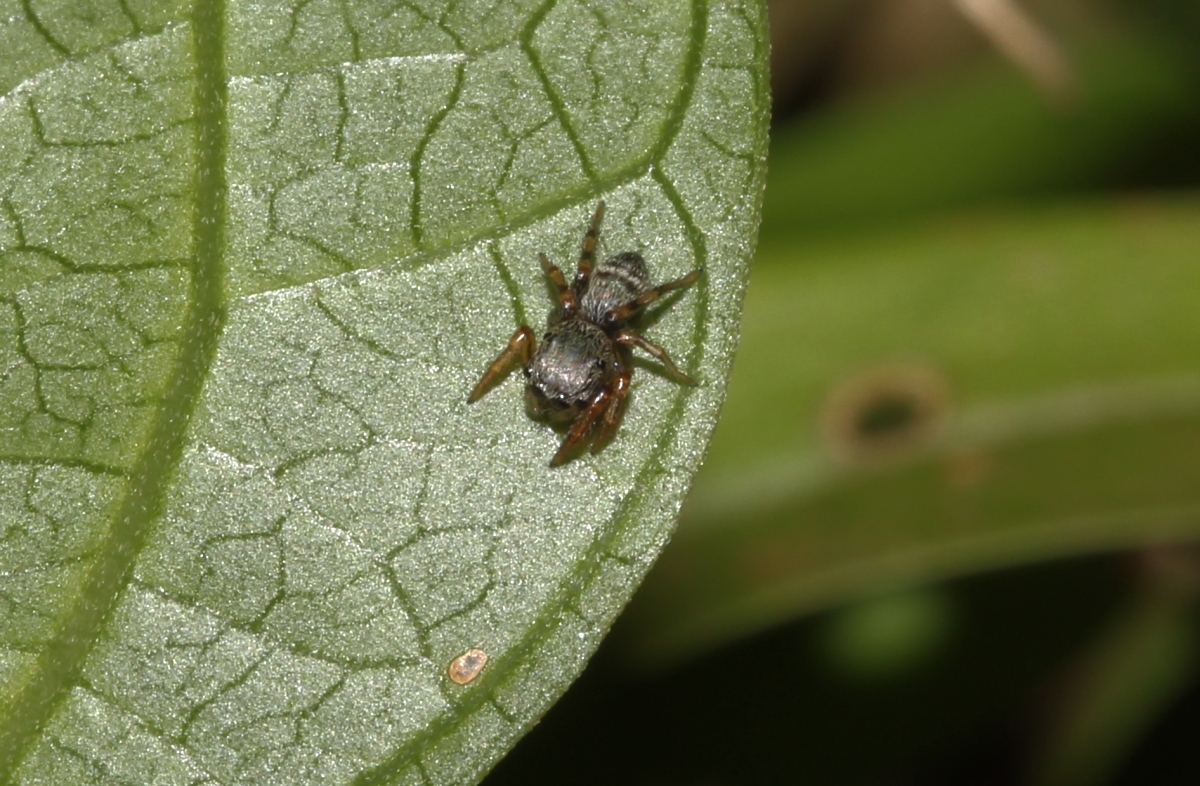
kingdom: Animalia
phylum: Arthropoda
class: Arachnida
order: Araneae
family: Salticidae
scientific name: Salticidae
